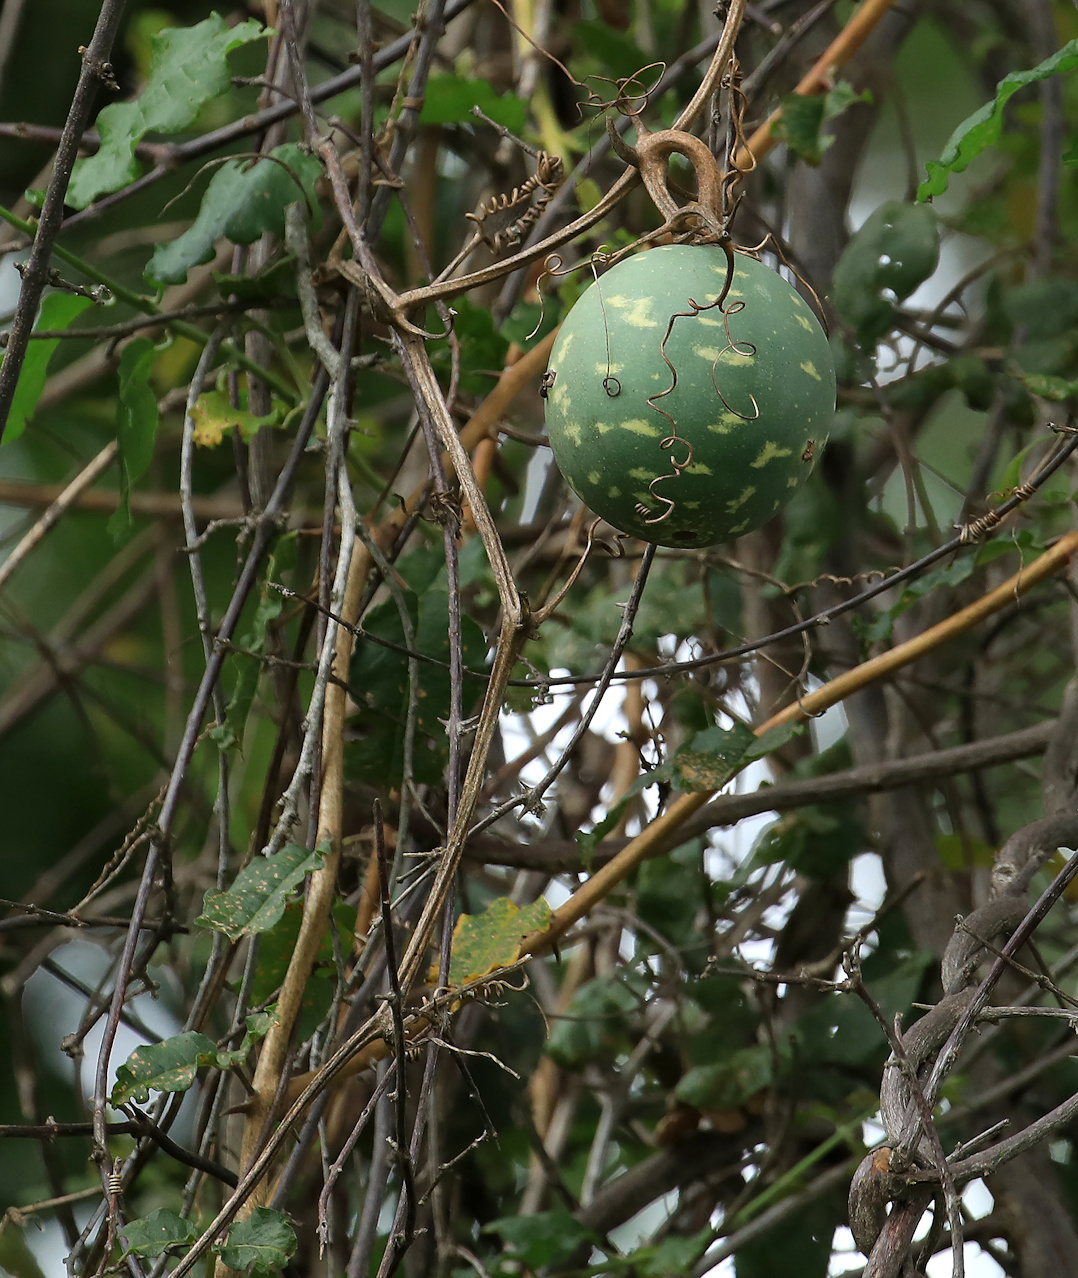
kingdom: Plantae
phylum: Tracheophyta
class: Magnoliopsida
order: Cucurbitales
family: Cucurbitaceae
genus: Lagenaria
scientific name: Lagenaria sphaerica
